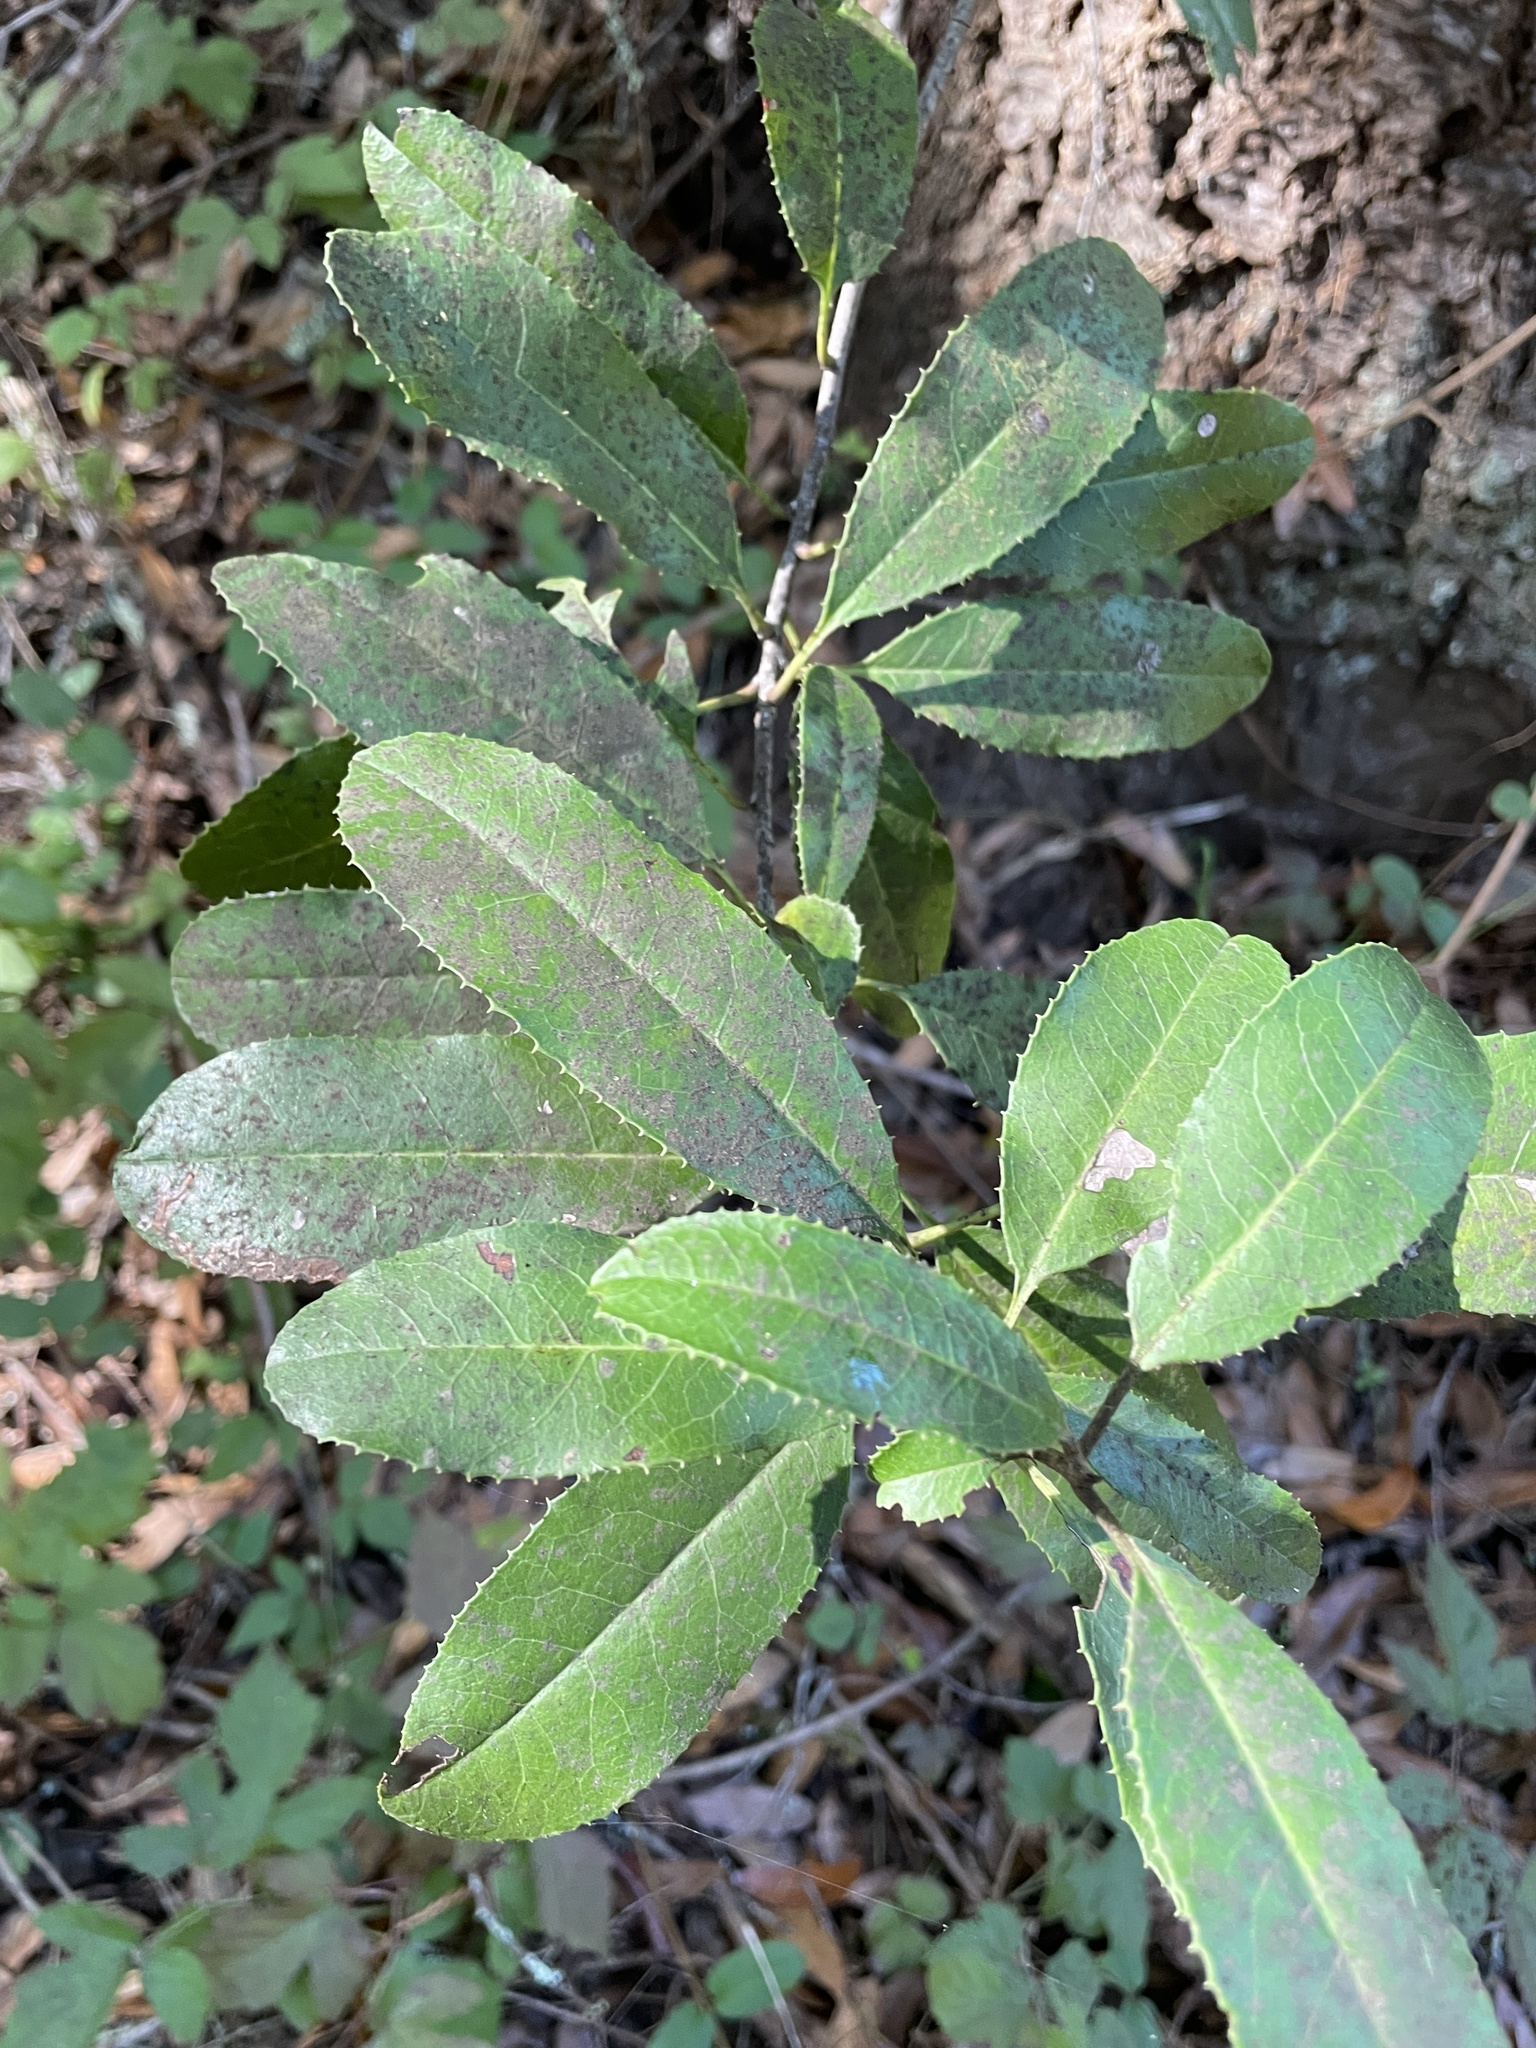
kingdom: Plantae
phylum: Tracheophyta
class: Magnoliopsida
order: Rosales
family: Rosaceae
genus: Heteromeles
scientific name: Heteromeles arbutifolia
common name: California-holly
